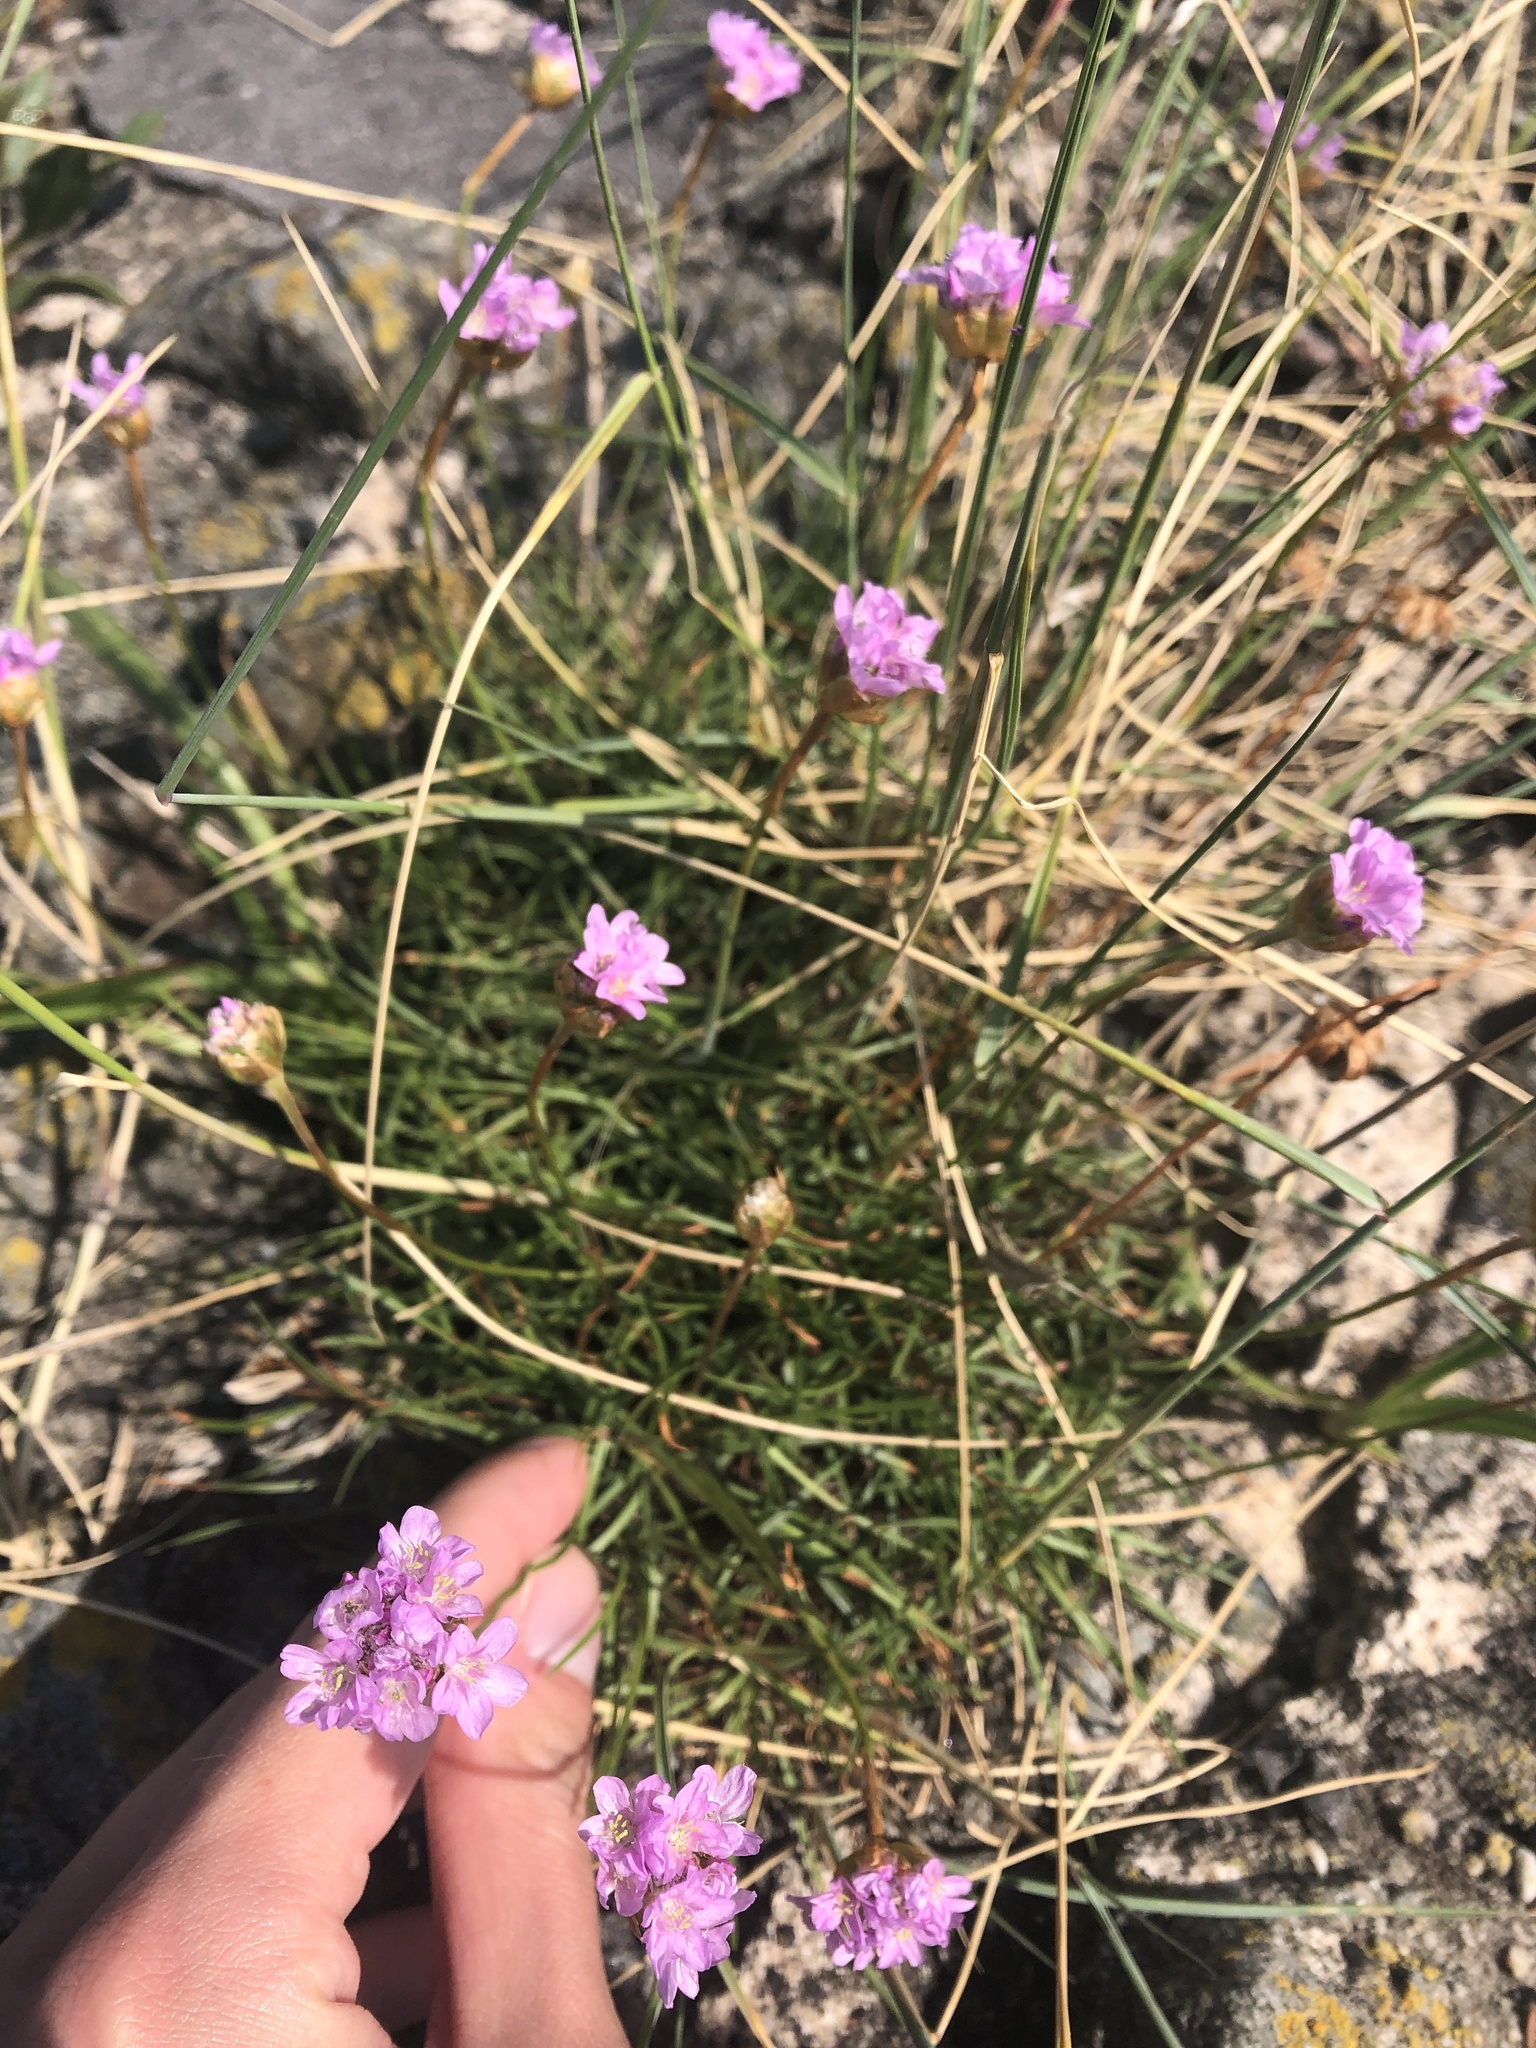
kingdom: Plantae
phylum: Tracheophyta
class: Magnoliopsida
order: Caryophyllales
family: Plumbaginaceae
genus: Armeria
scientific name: Armeria maritima
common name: Thrift
